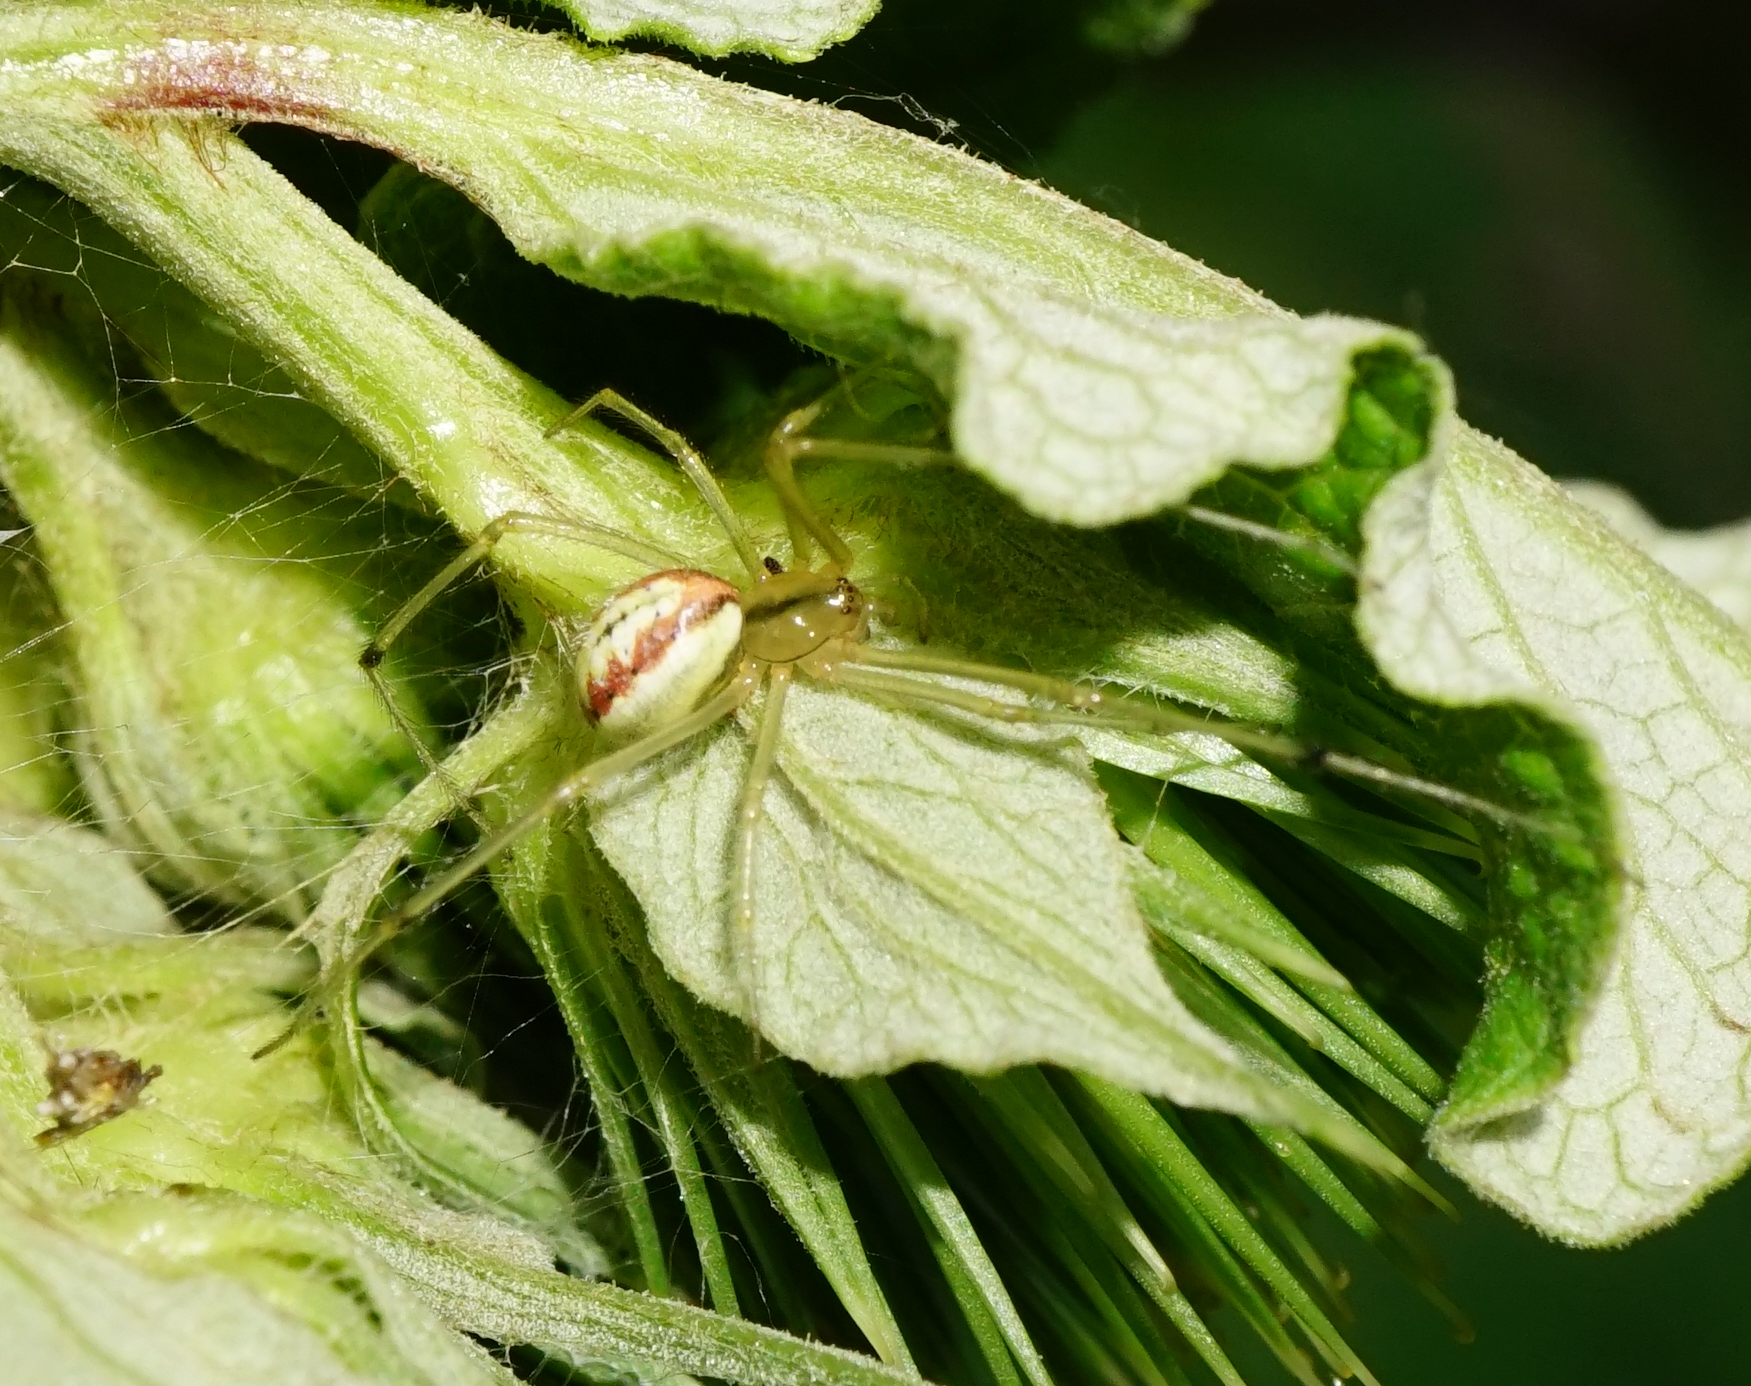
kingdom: Animalia
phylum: Arthropoda
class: Arachnida
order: Araneae
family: Theridiidae
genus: Enoplognatha
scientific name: Enoplognatha
